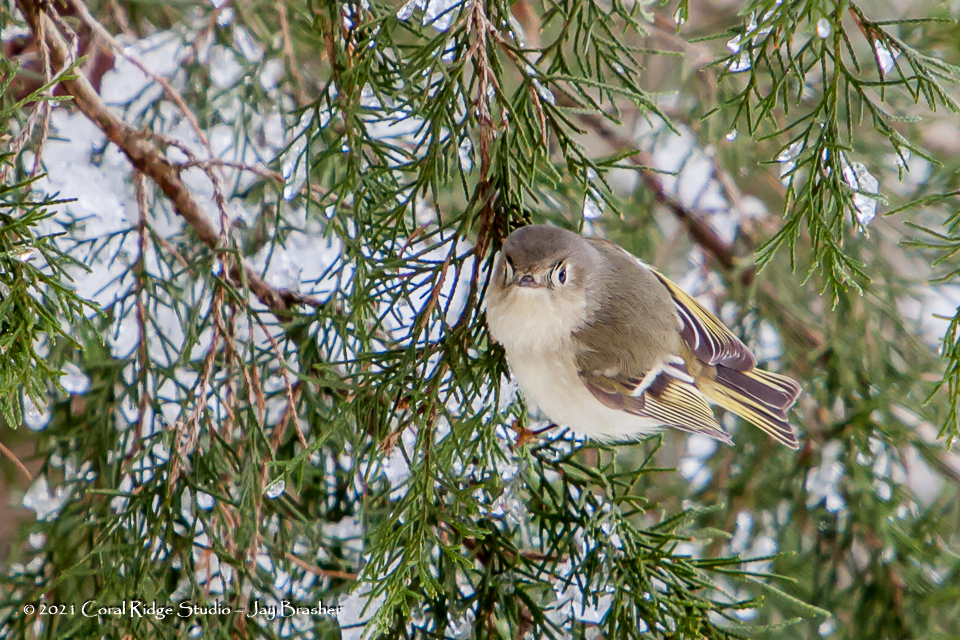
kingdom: Animalia
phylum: Chordata
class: Aves
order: Passeriformes
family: Regulidae
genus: Regulus
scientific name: Regulus calendula
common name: Ruby-crowned kinglet
